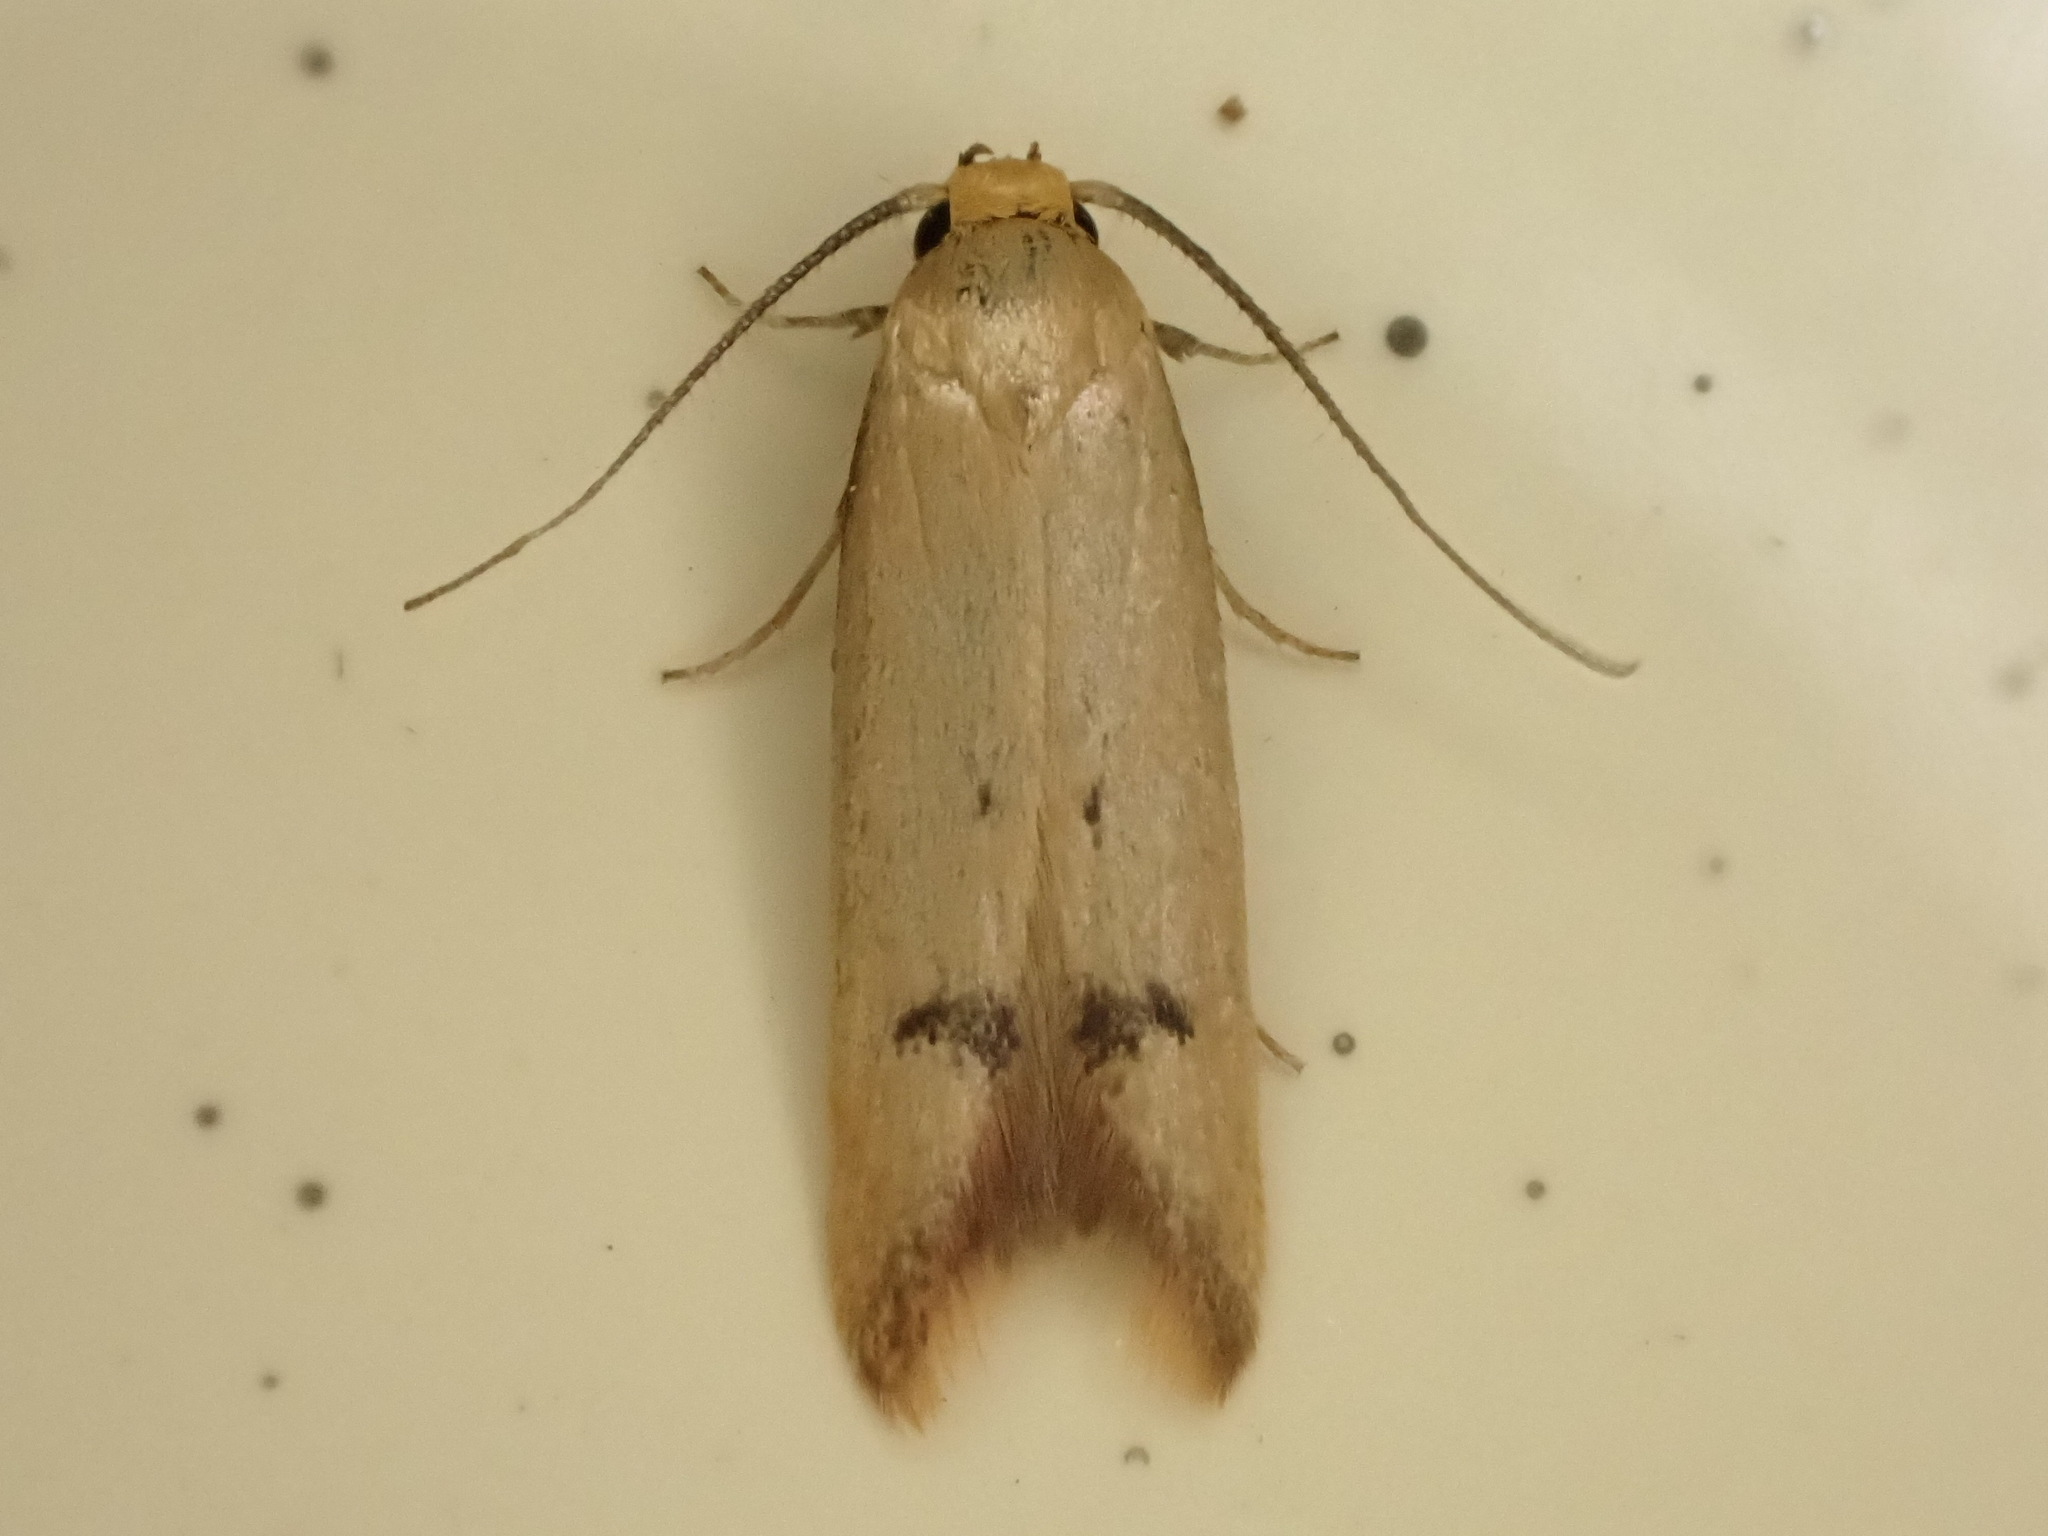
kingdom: Animalia
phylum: Arthropoda
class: Insecta
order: Lepidoptera
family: Oecophoridae
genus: Tachystola
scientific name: Tachystola hemisema
